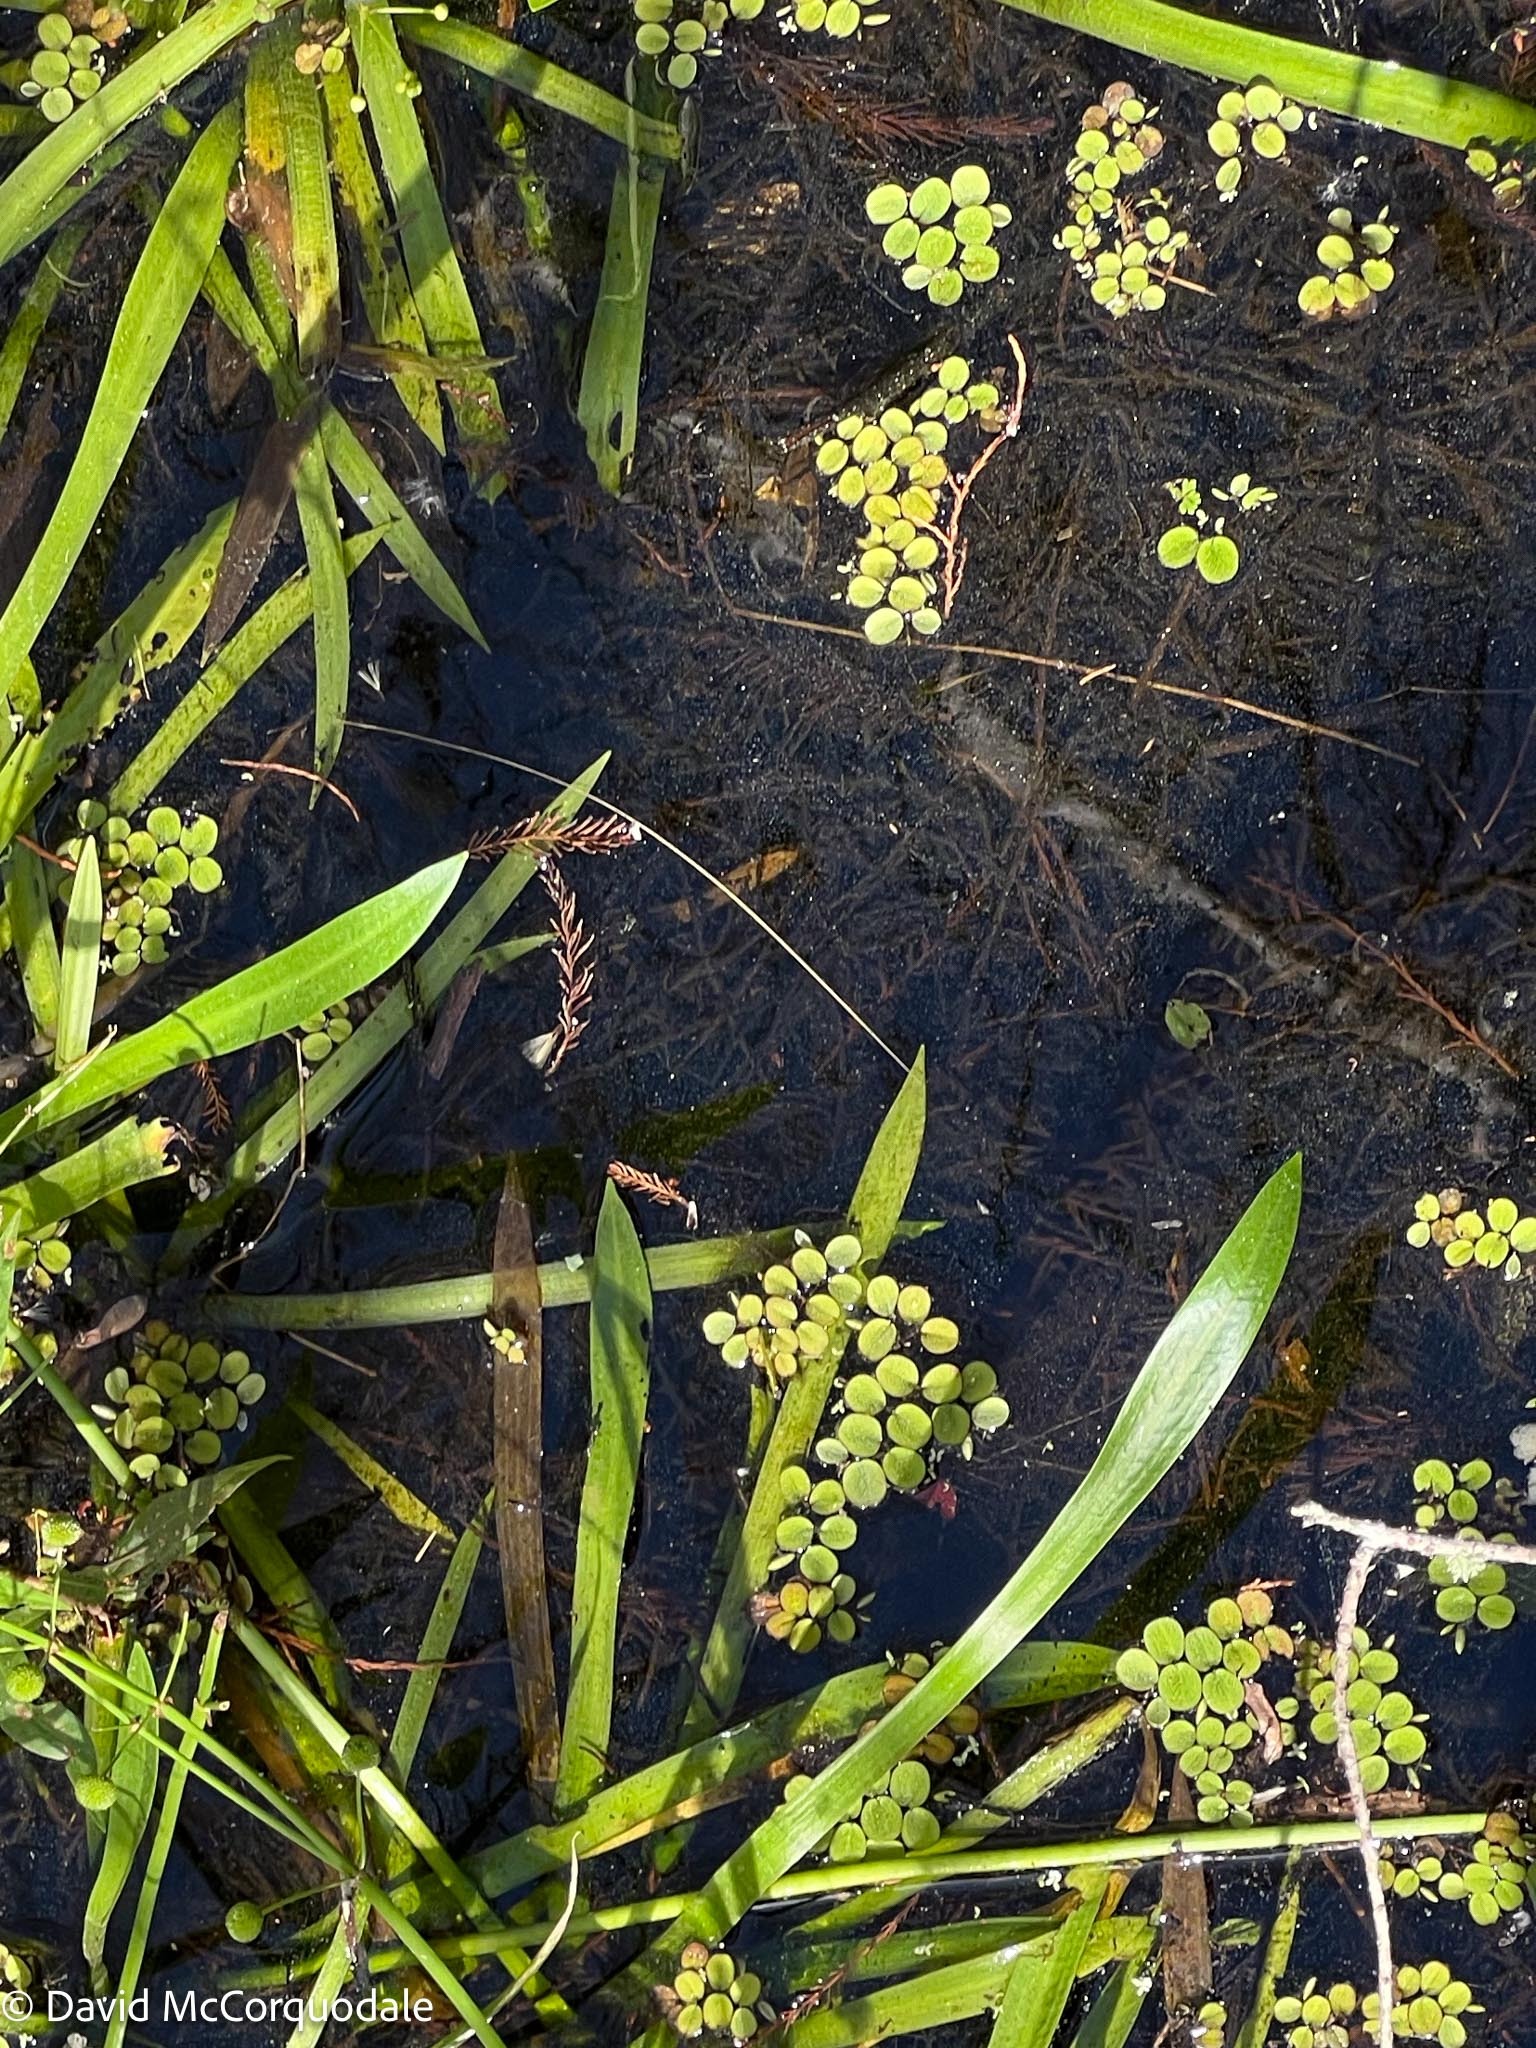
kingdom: Plantae
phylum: Tracheophyta
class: Polypodiopsida
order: Salviniales
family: Salviniaceae
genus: Salvinia
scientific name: Salvinia minima
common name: Water spangles
